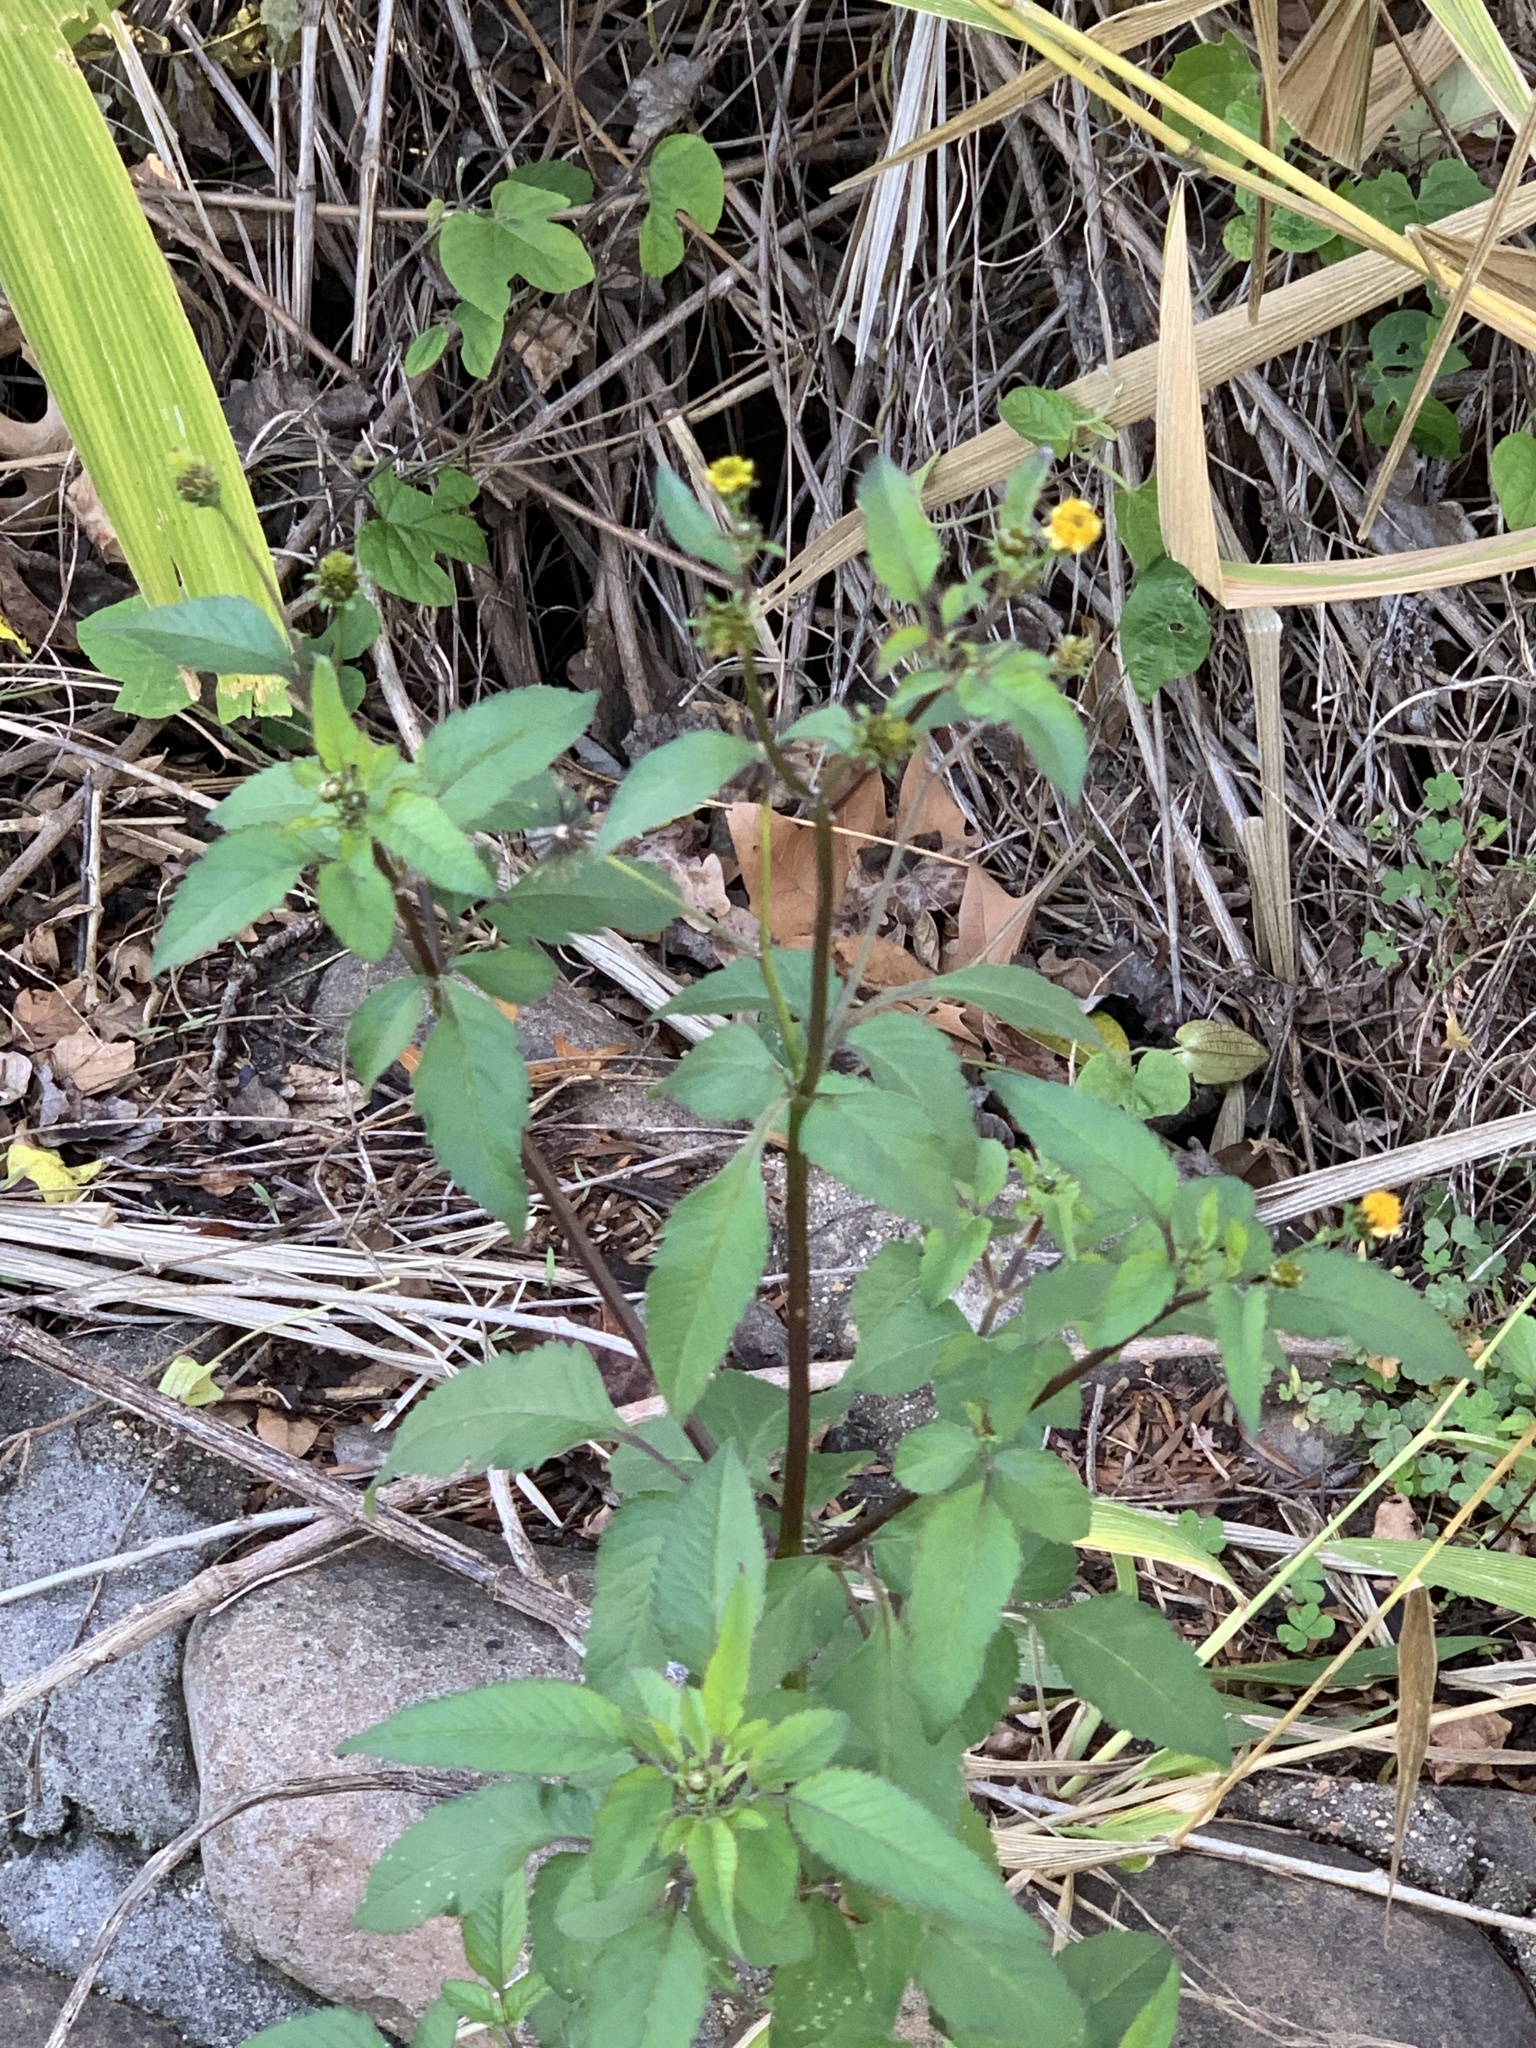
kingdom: Plantae
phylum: Tracheophyta
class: Magnoliopsida
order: Asterales
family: Asteraceae
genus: Bidens
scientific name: Bidens pilosa
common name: Black-jack
